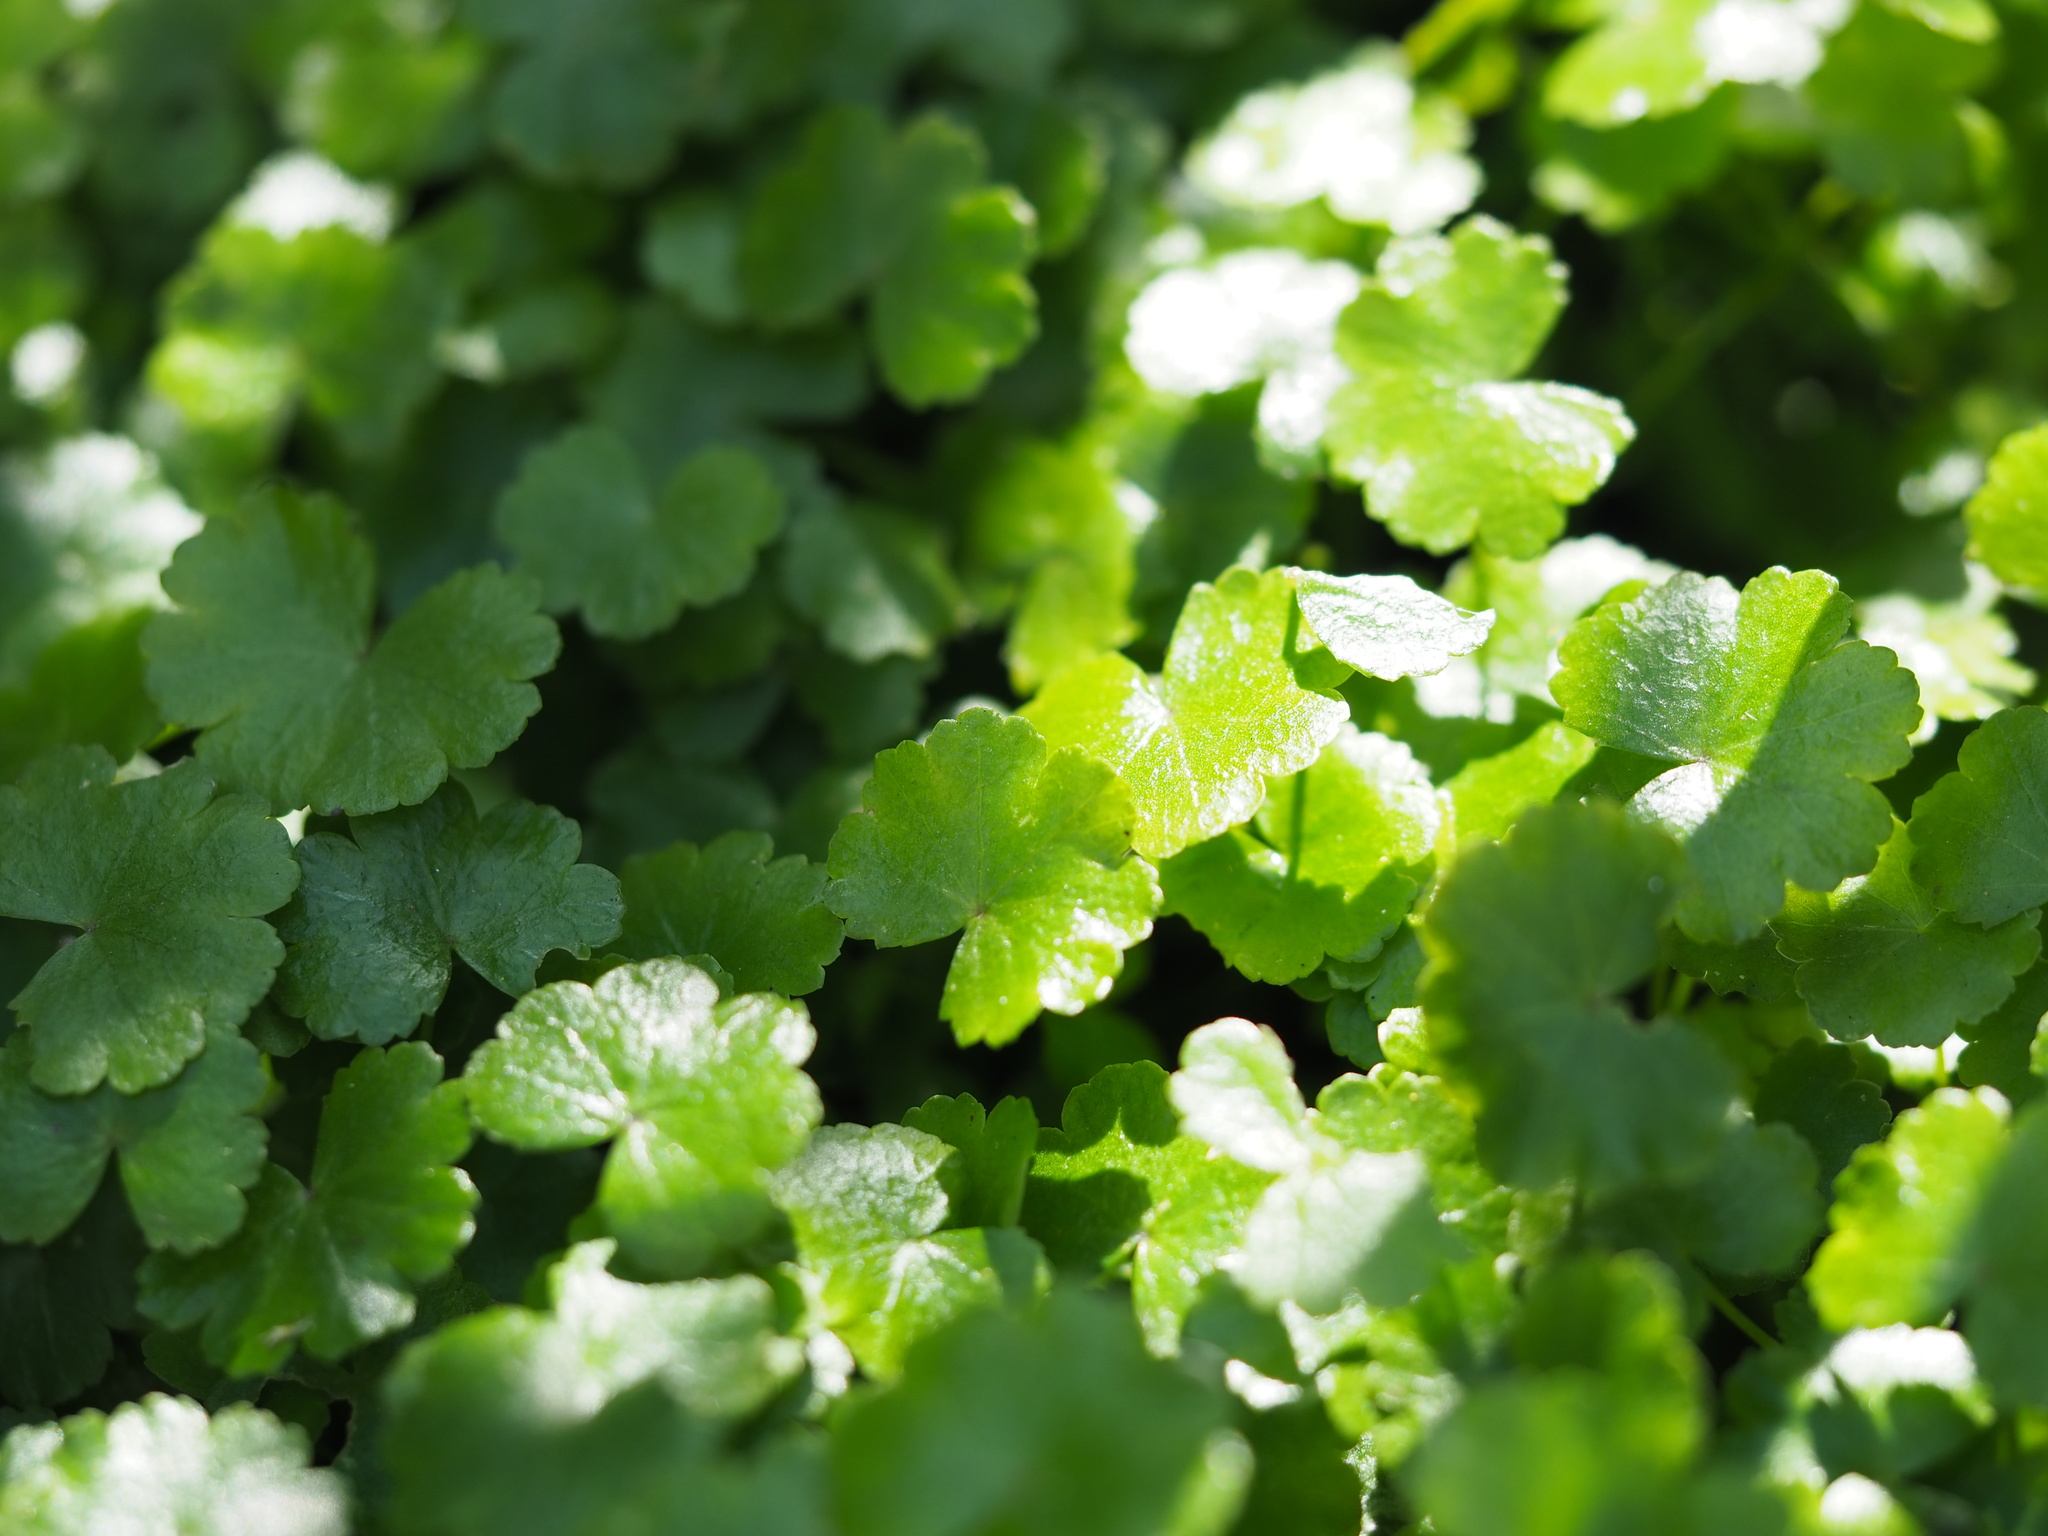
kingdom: Plantae
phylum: Tracheophyta
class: Magnoliopsida
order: Apiales
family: Araliaceae
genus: Hydrocotyle
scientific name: Hydrocotyle sibthorpioides
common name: Lawn marshpennywort
